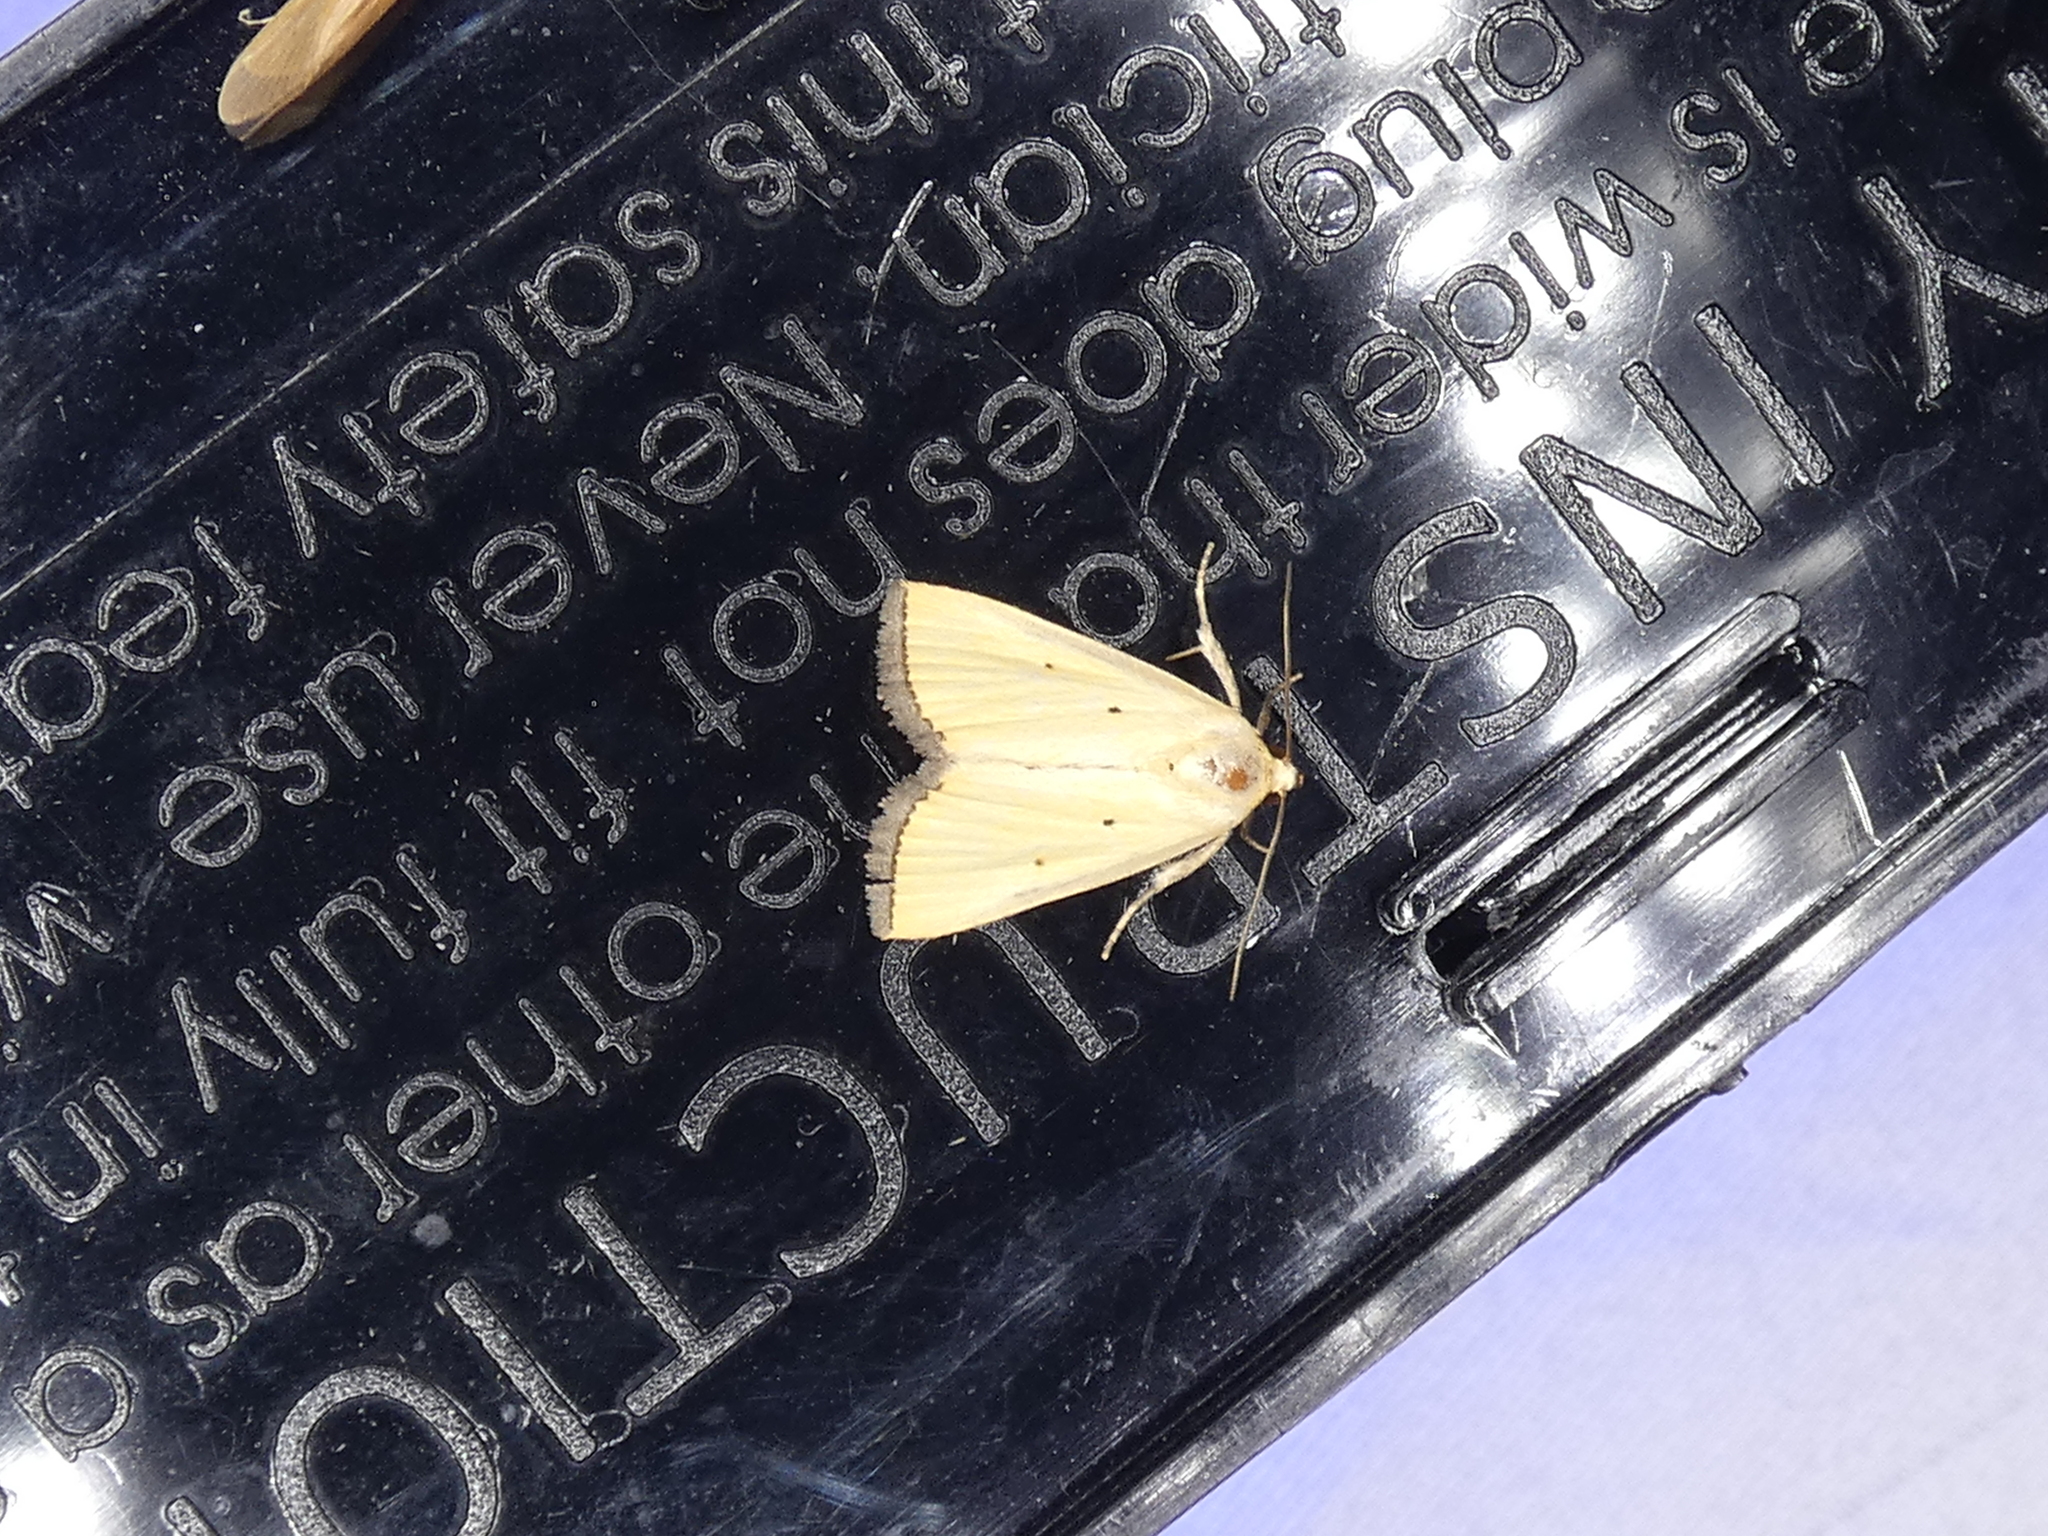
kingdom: Animalia
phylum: Arthropoda
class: Insecta
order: Lepidoptera
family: Noctuidae
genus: Marimatha
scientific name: Marimatha nigrofimbria
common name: Black-bordered lemon moth
